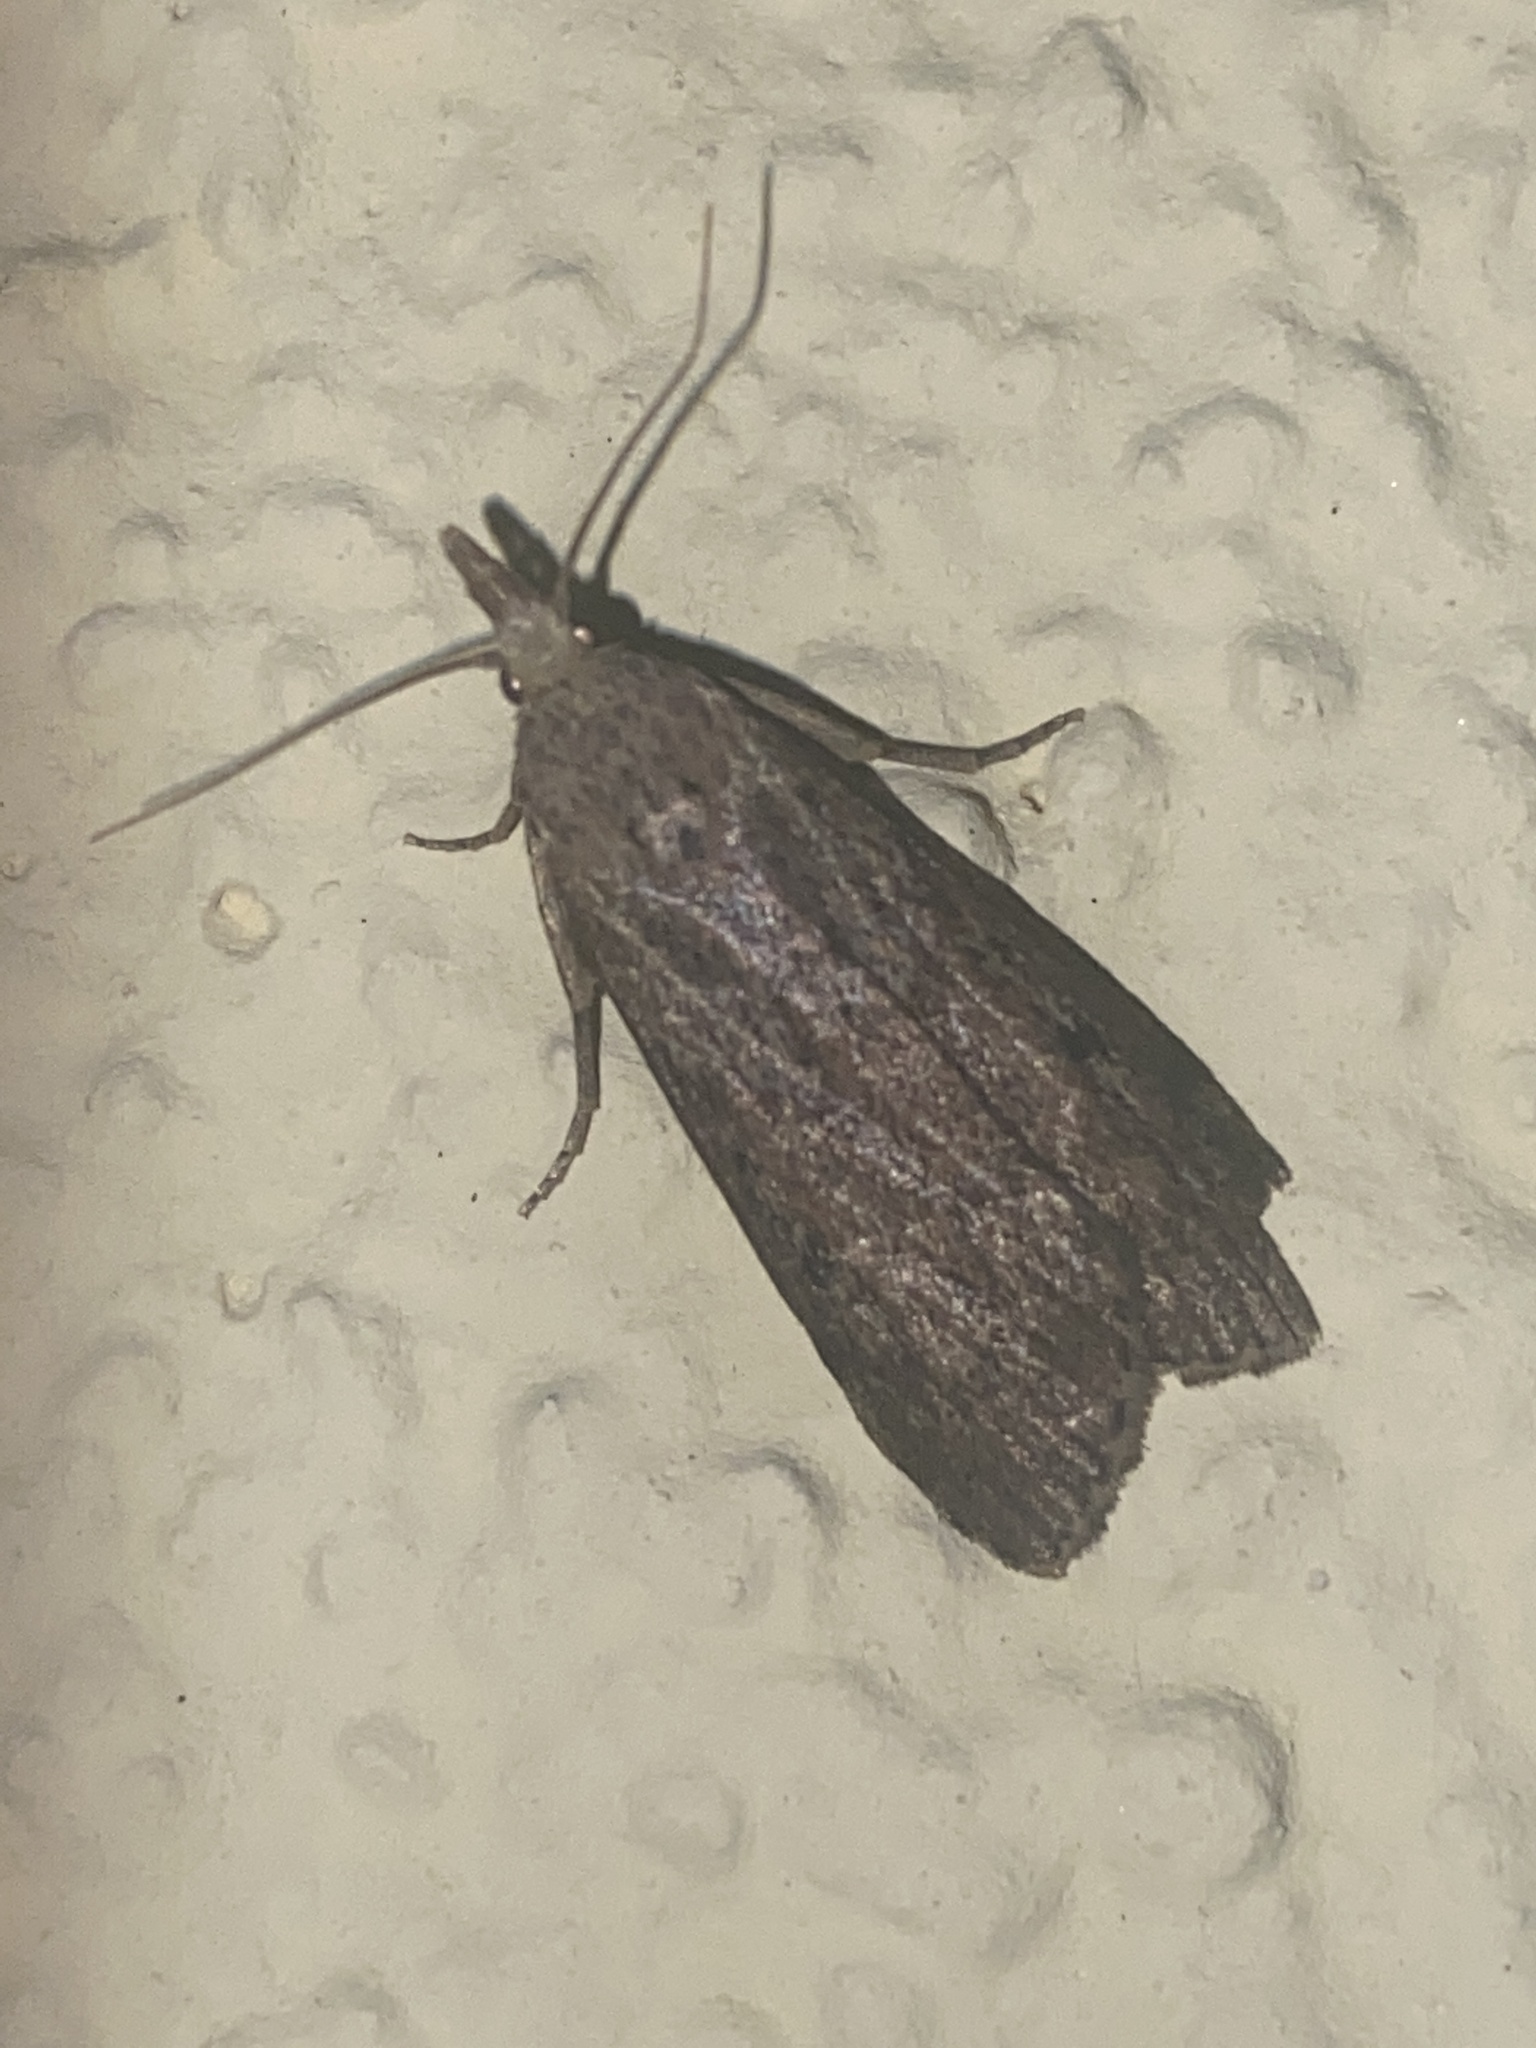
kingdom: Animalia
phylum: Arthropoda
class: Insecta
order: Lepidoptera
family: Pyralidae
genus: Aphomia
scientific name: Aphomia sociella
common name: Bee moth
